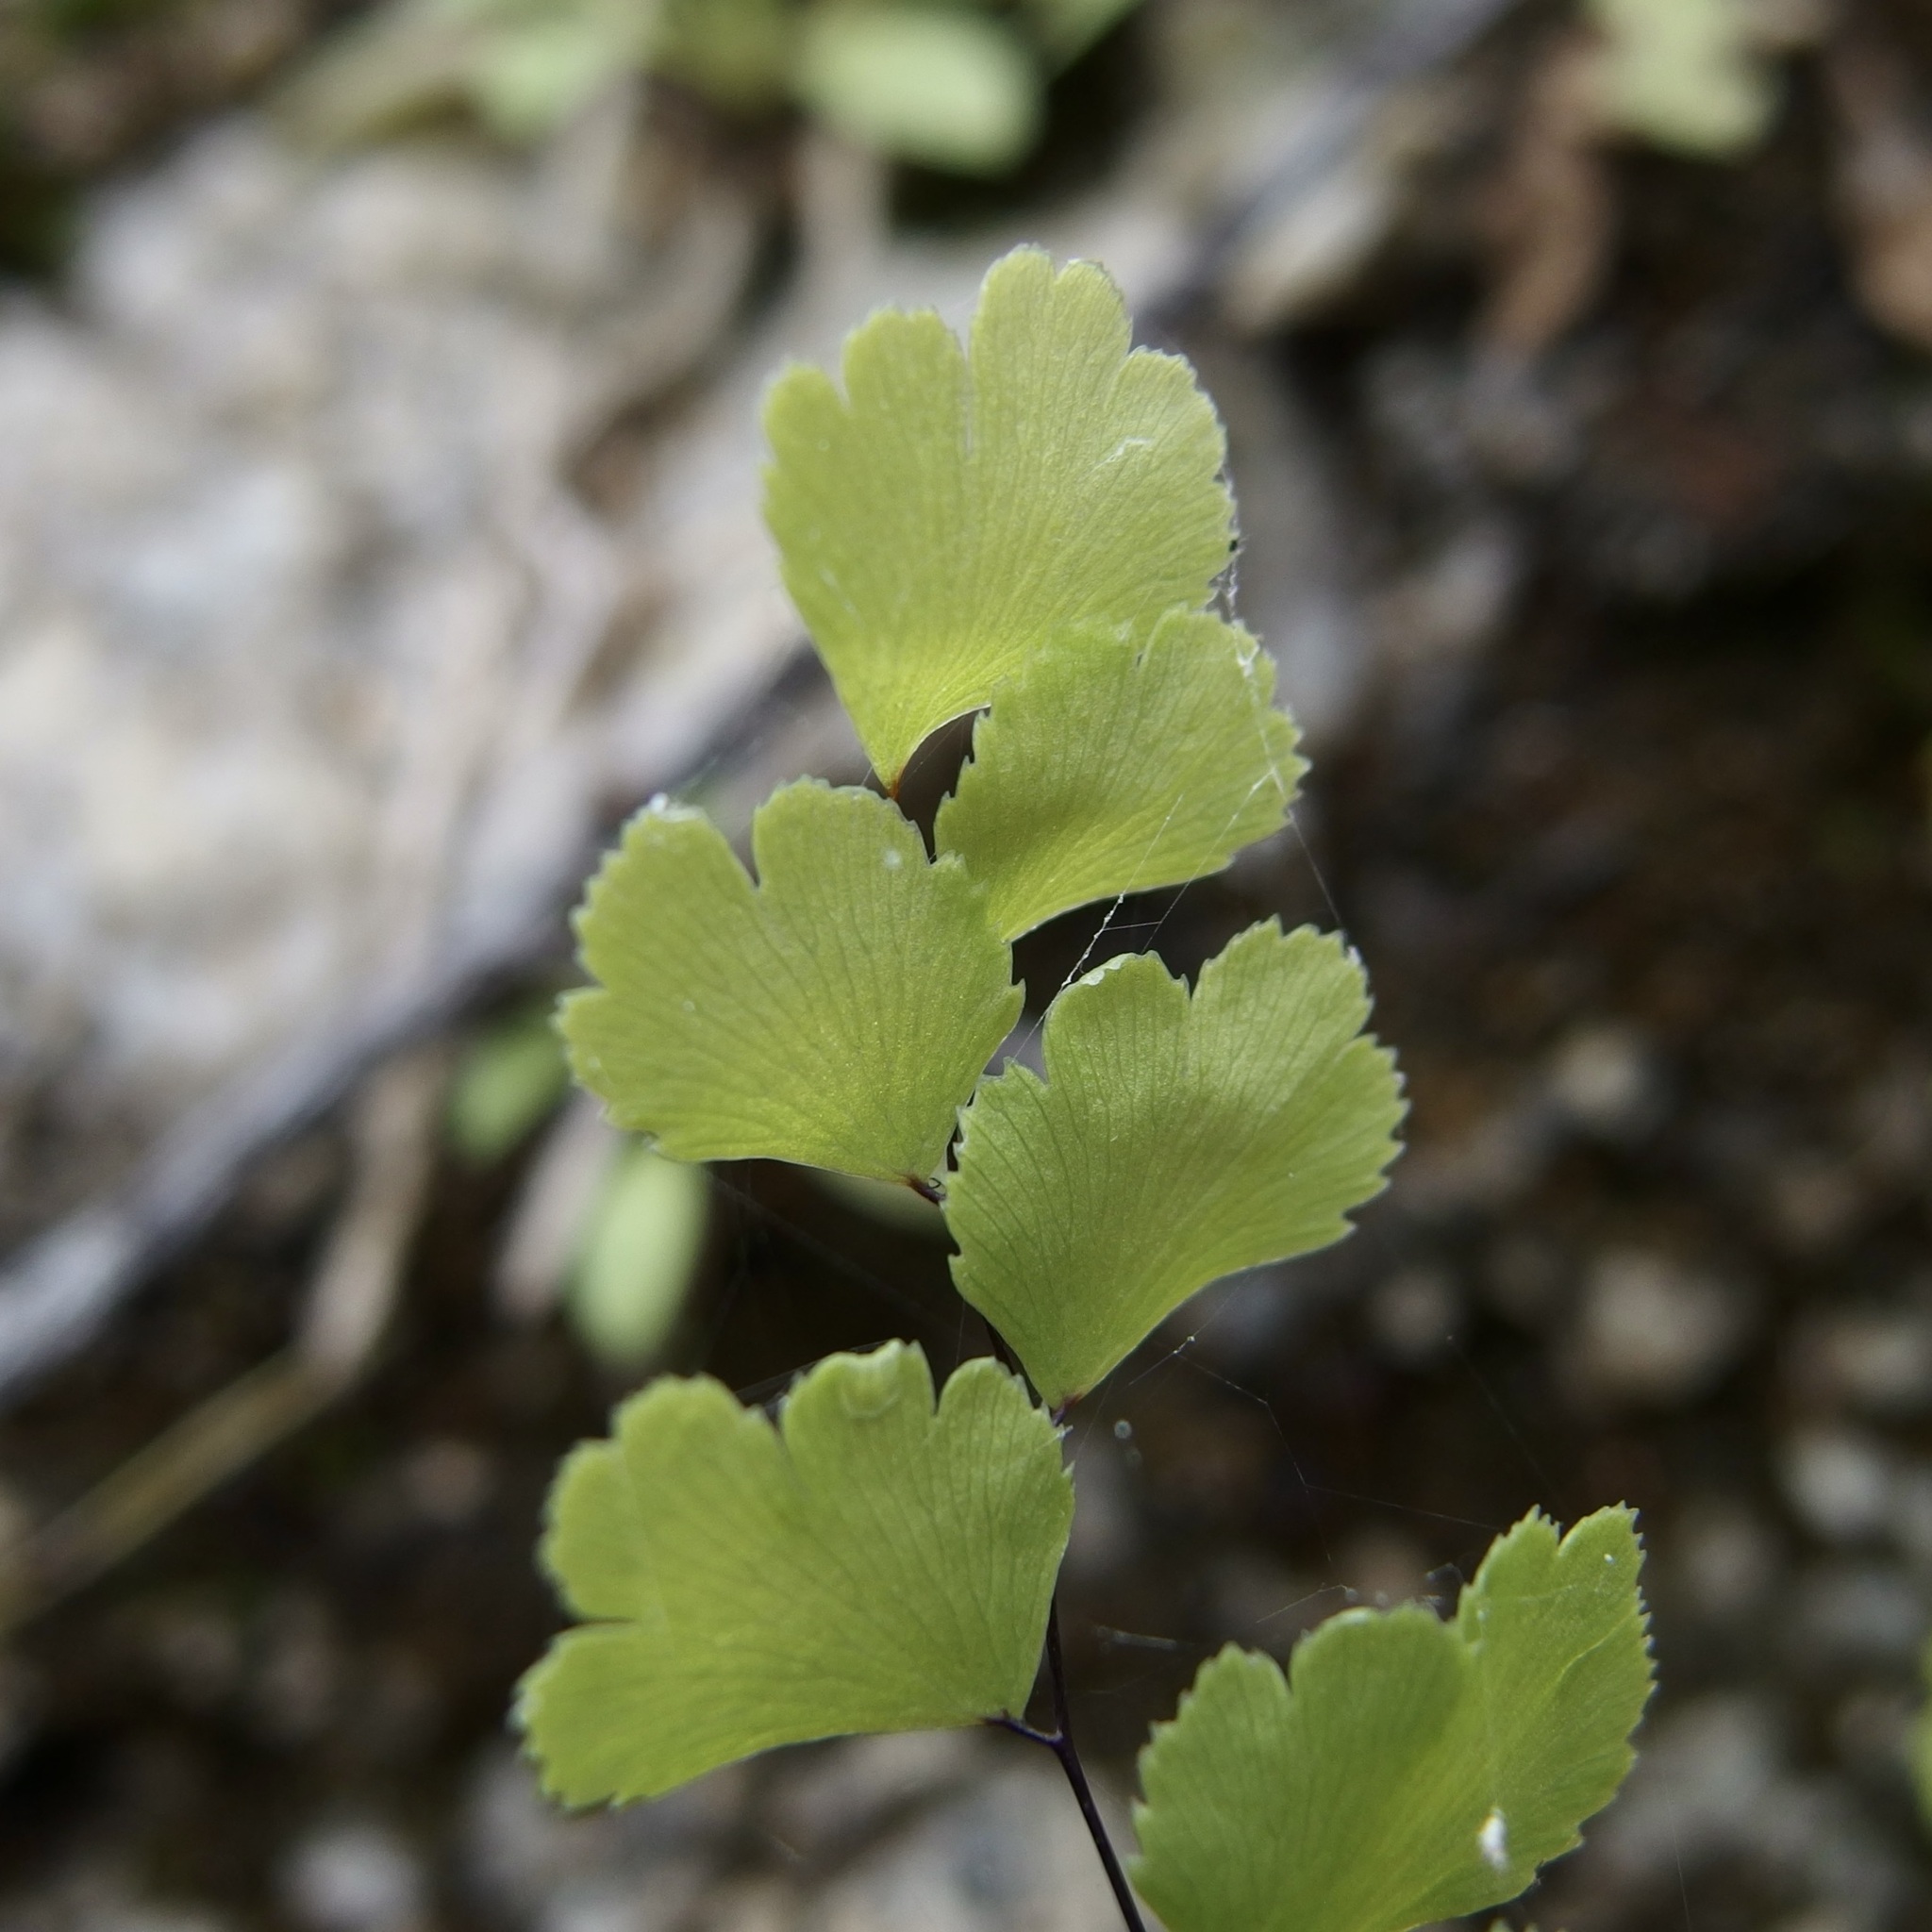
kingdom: Plantae
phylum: Tracheophyta
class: Polypodiopsida
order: Polypodiales
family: Pteridaceae
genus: Adiantum
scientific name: Adiantum capillus-veneris
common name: Maidenhair fern
